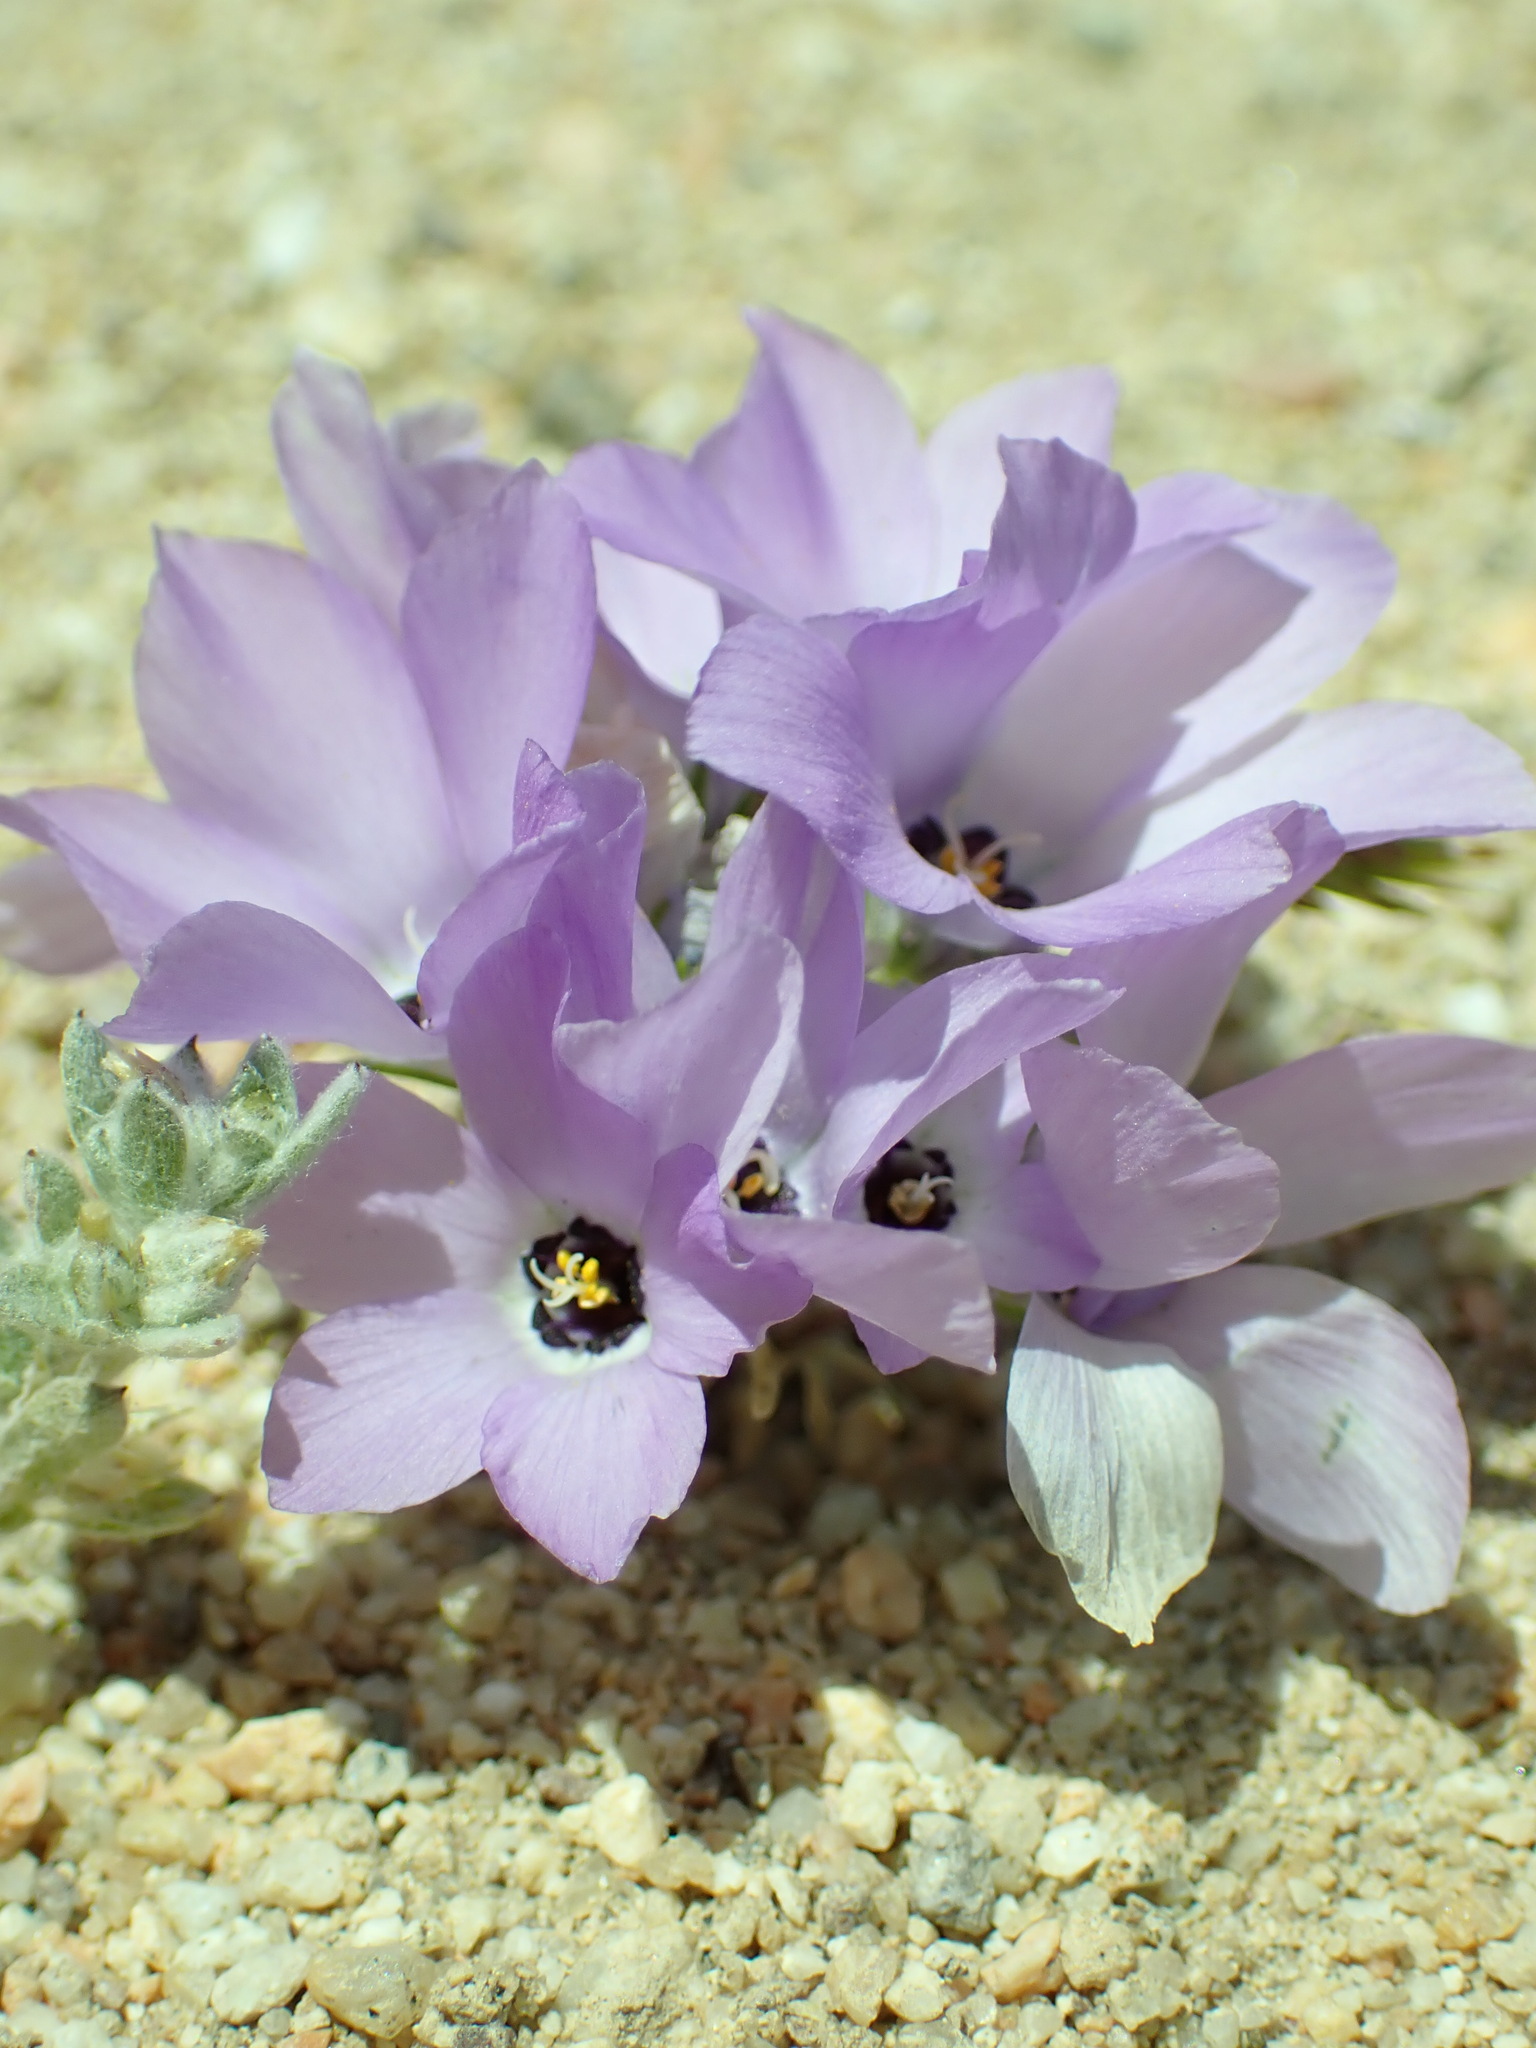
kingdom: Plantae
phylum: Tracheophyta
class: Magnoliopsida
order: Ericales
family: Polemoniaceae
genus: Linanthus
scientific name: Linanthus parryae
